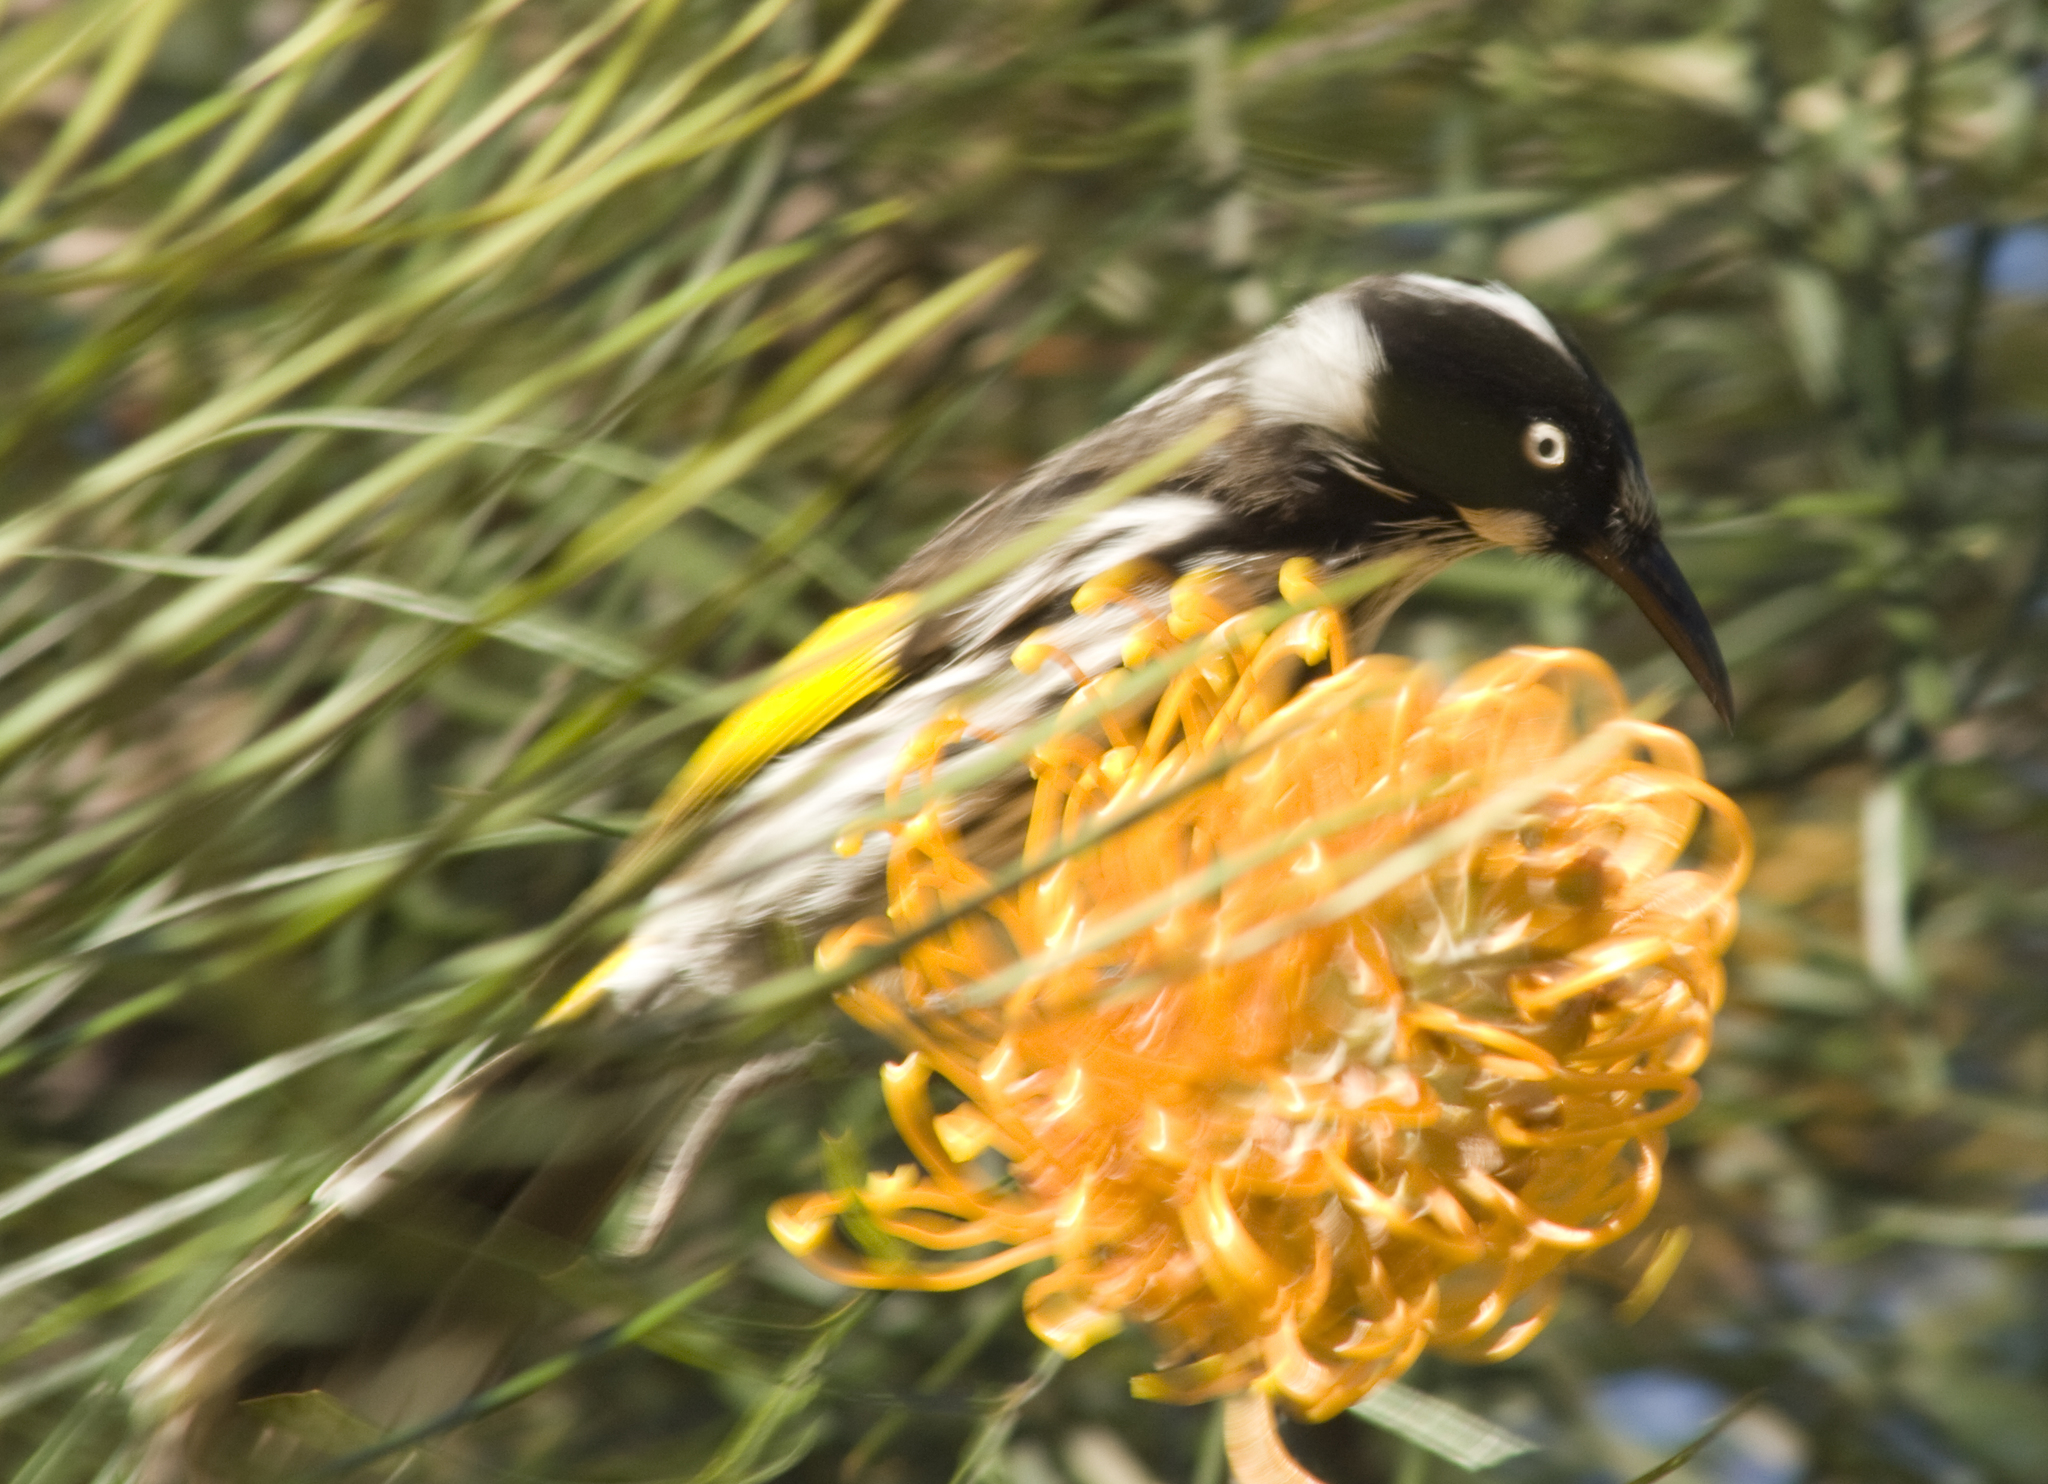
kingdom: Animalia
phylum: Chordata
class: Aves
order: Passeriformes
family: Meliphagidae
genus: Phylidonyris
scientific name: Phylidonyris novaehollandiae
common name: New holland honeyeater
